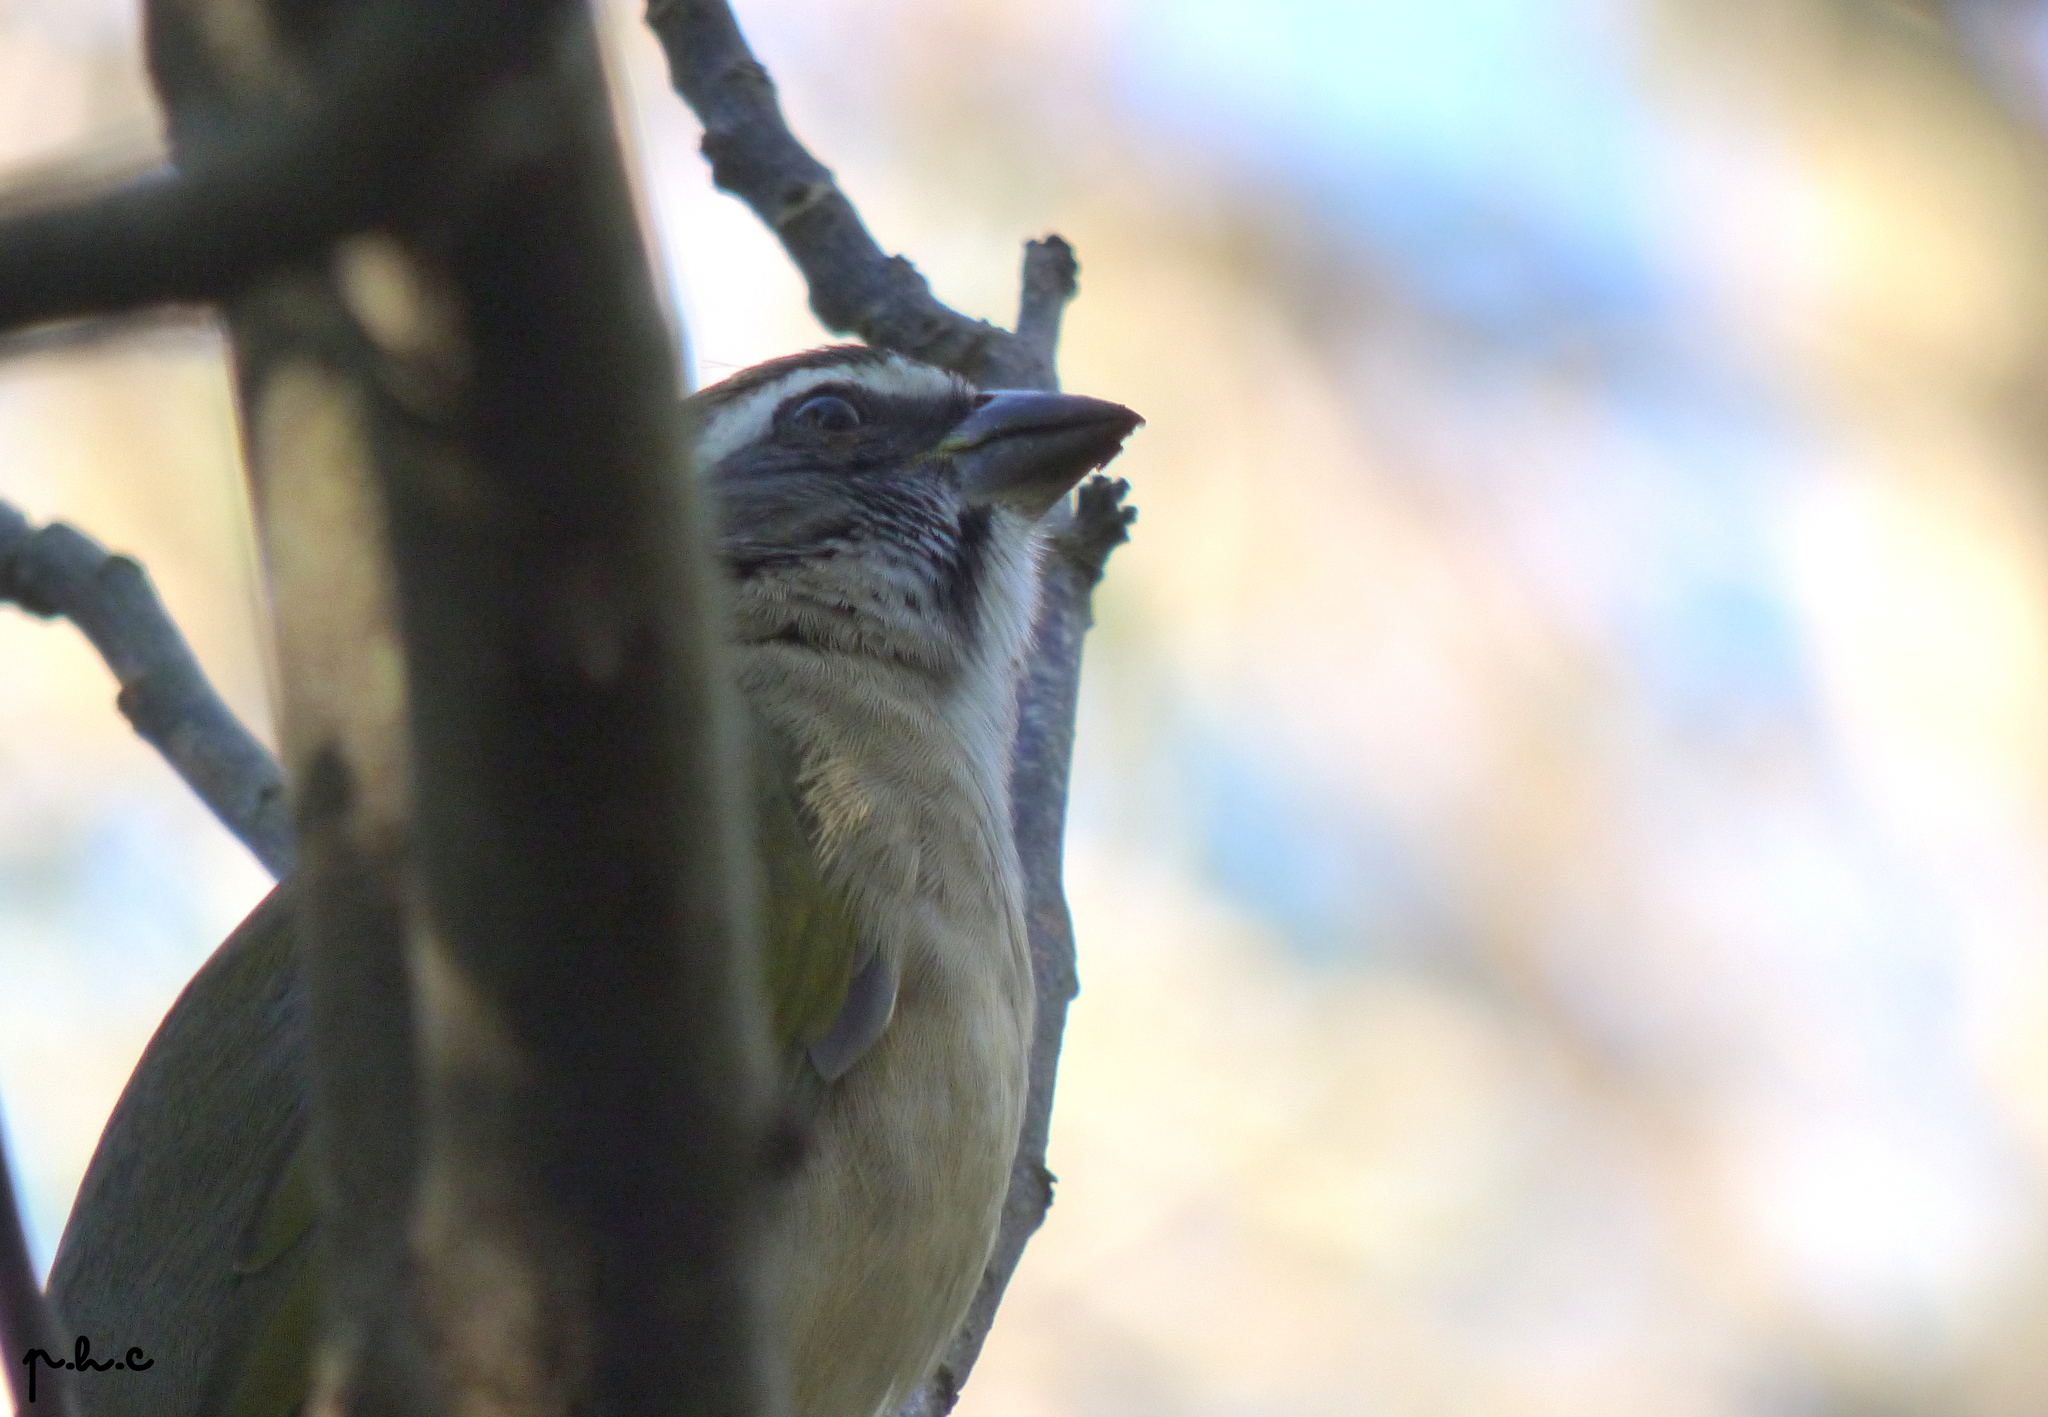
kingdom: Animalia
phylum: Chordata
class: Aves
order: Passeriformes
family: Thraupidae
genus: Saltator
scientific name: Saltator similis
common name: Green-winged saltator
